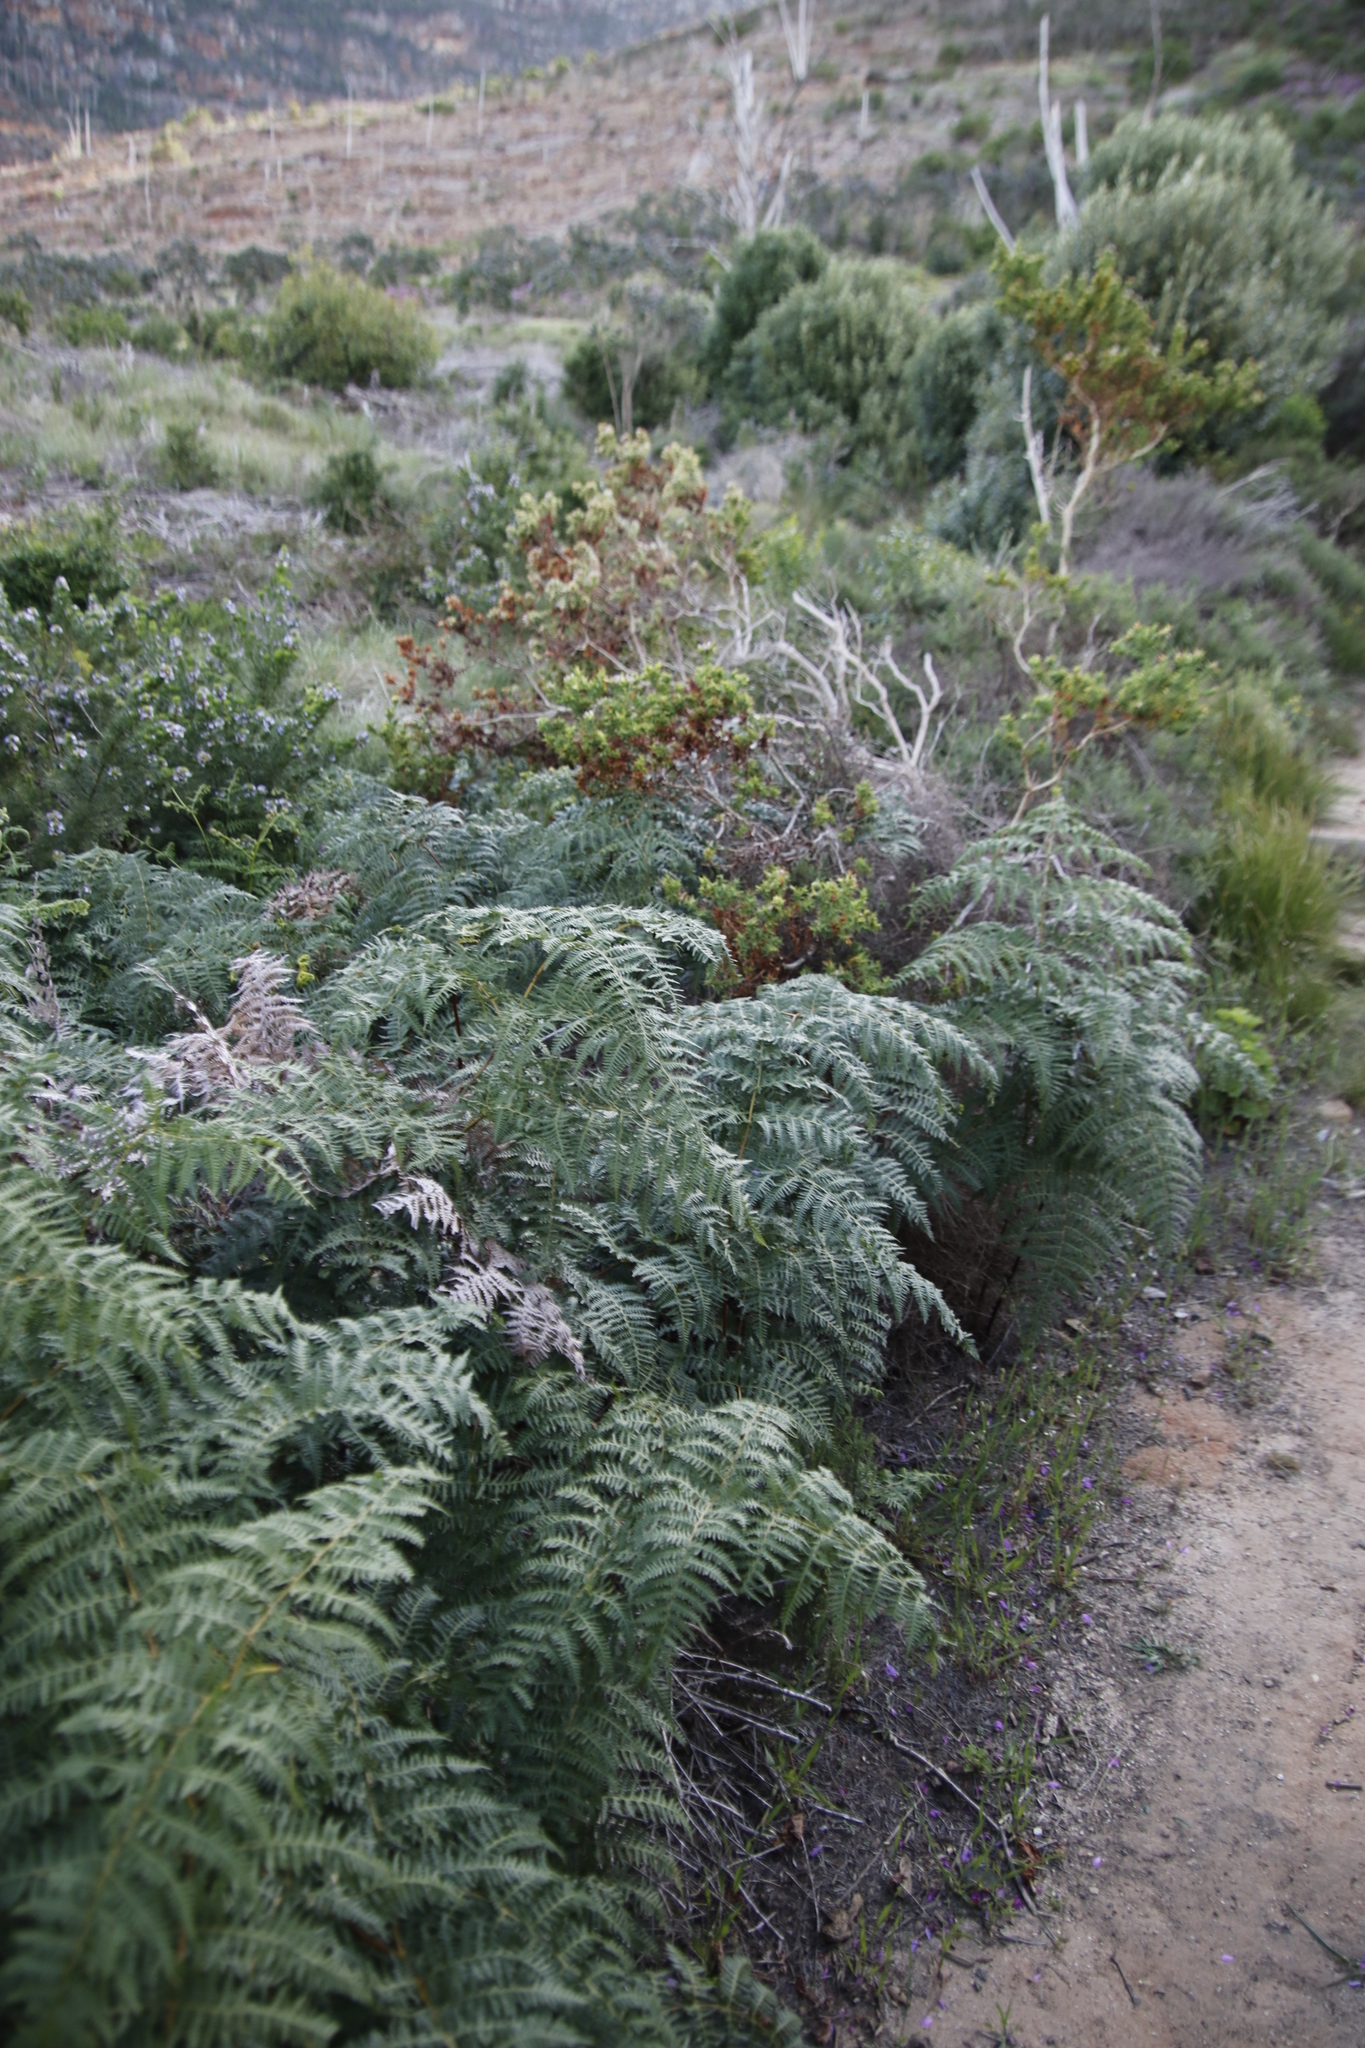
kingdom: Plantae
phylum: Tracheophyta
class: Polypodiopsida
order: Polypodiales
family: Dennstaedtiaceae
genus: Pteridium
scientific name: Pteridium aquilinum
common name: Bracken
